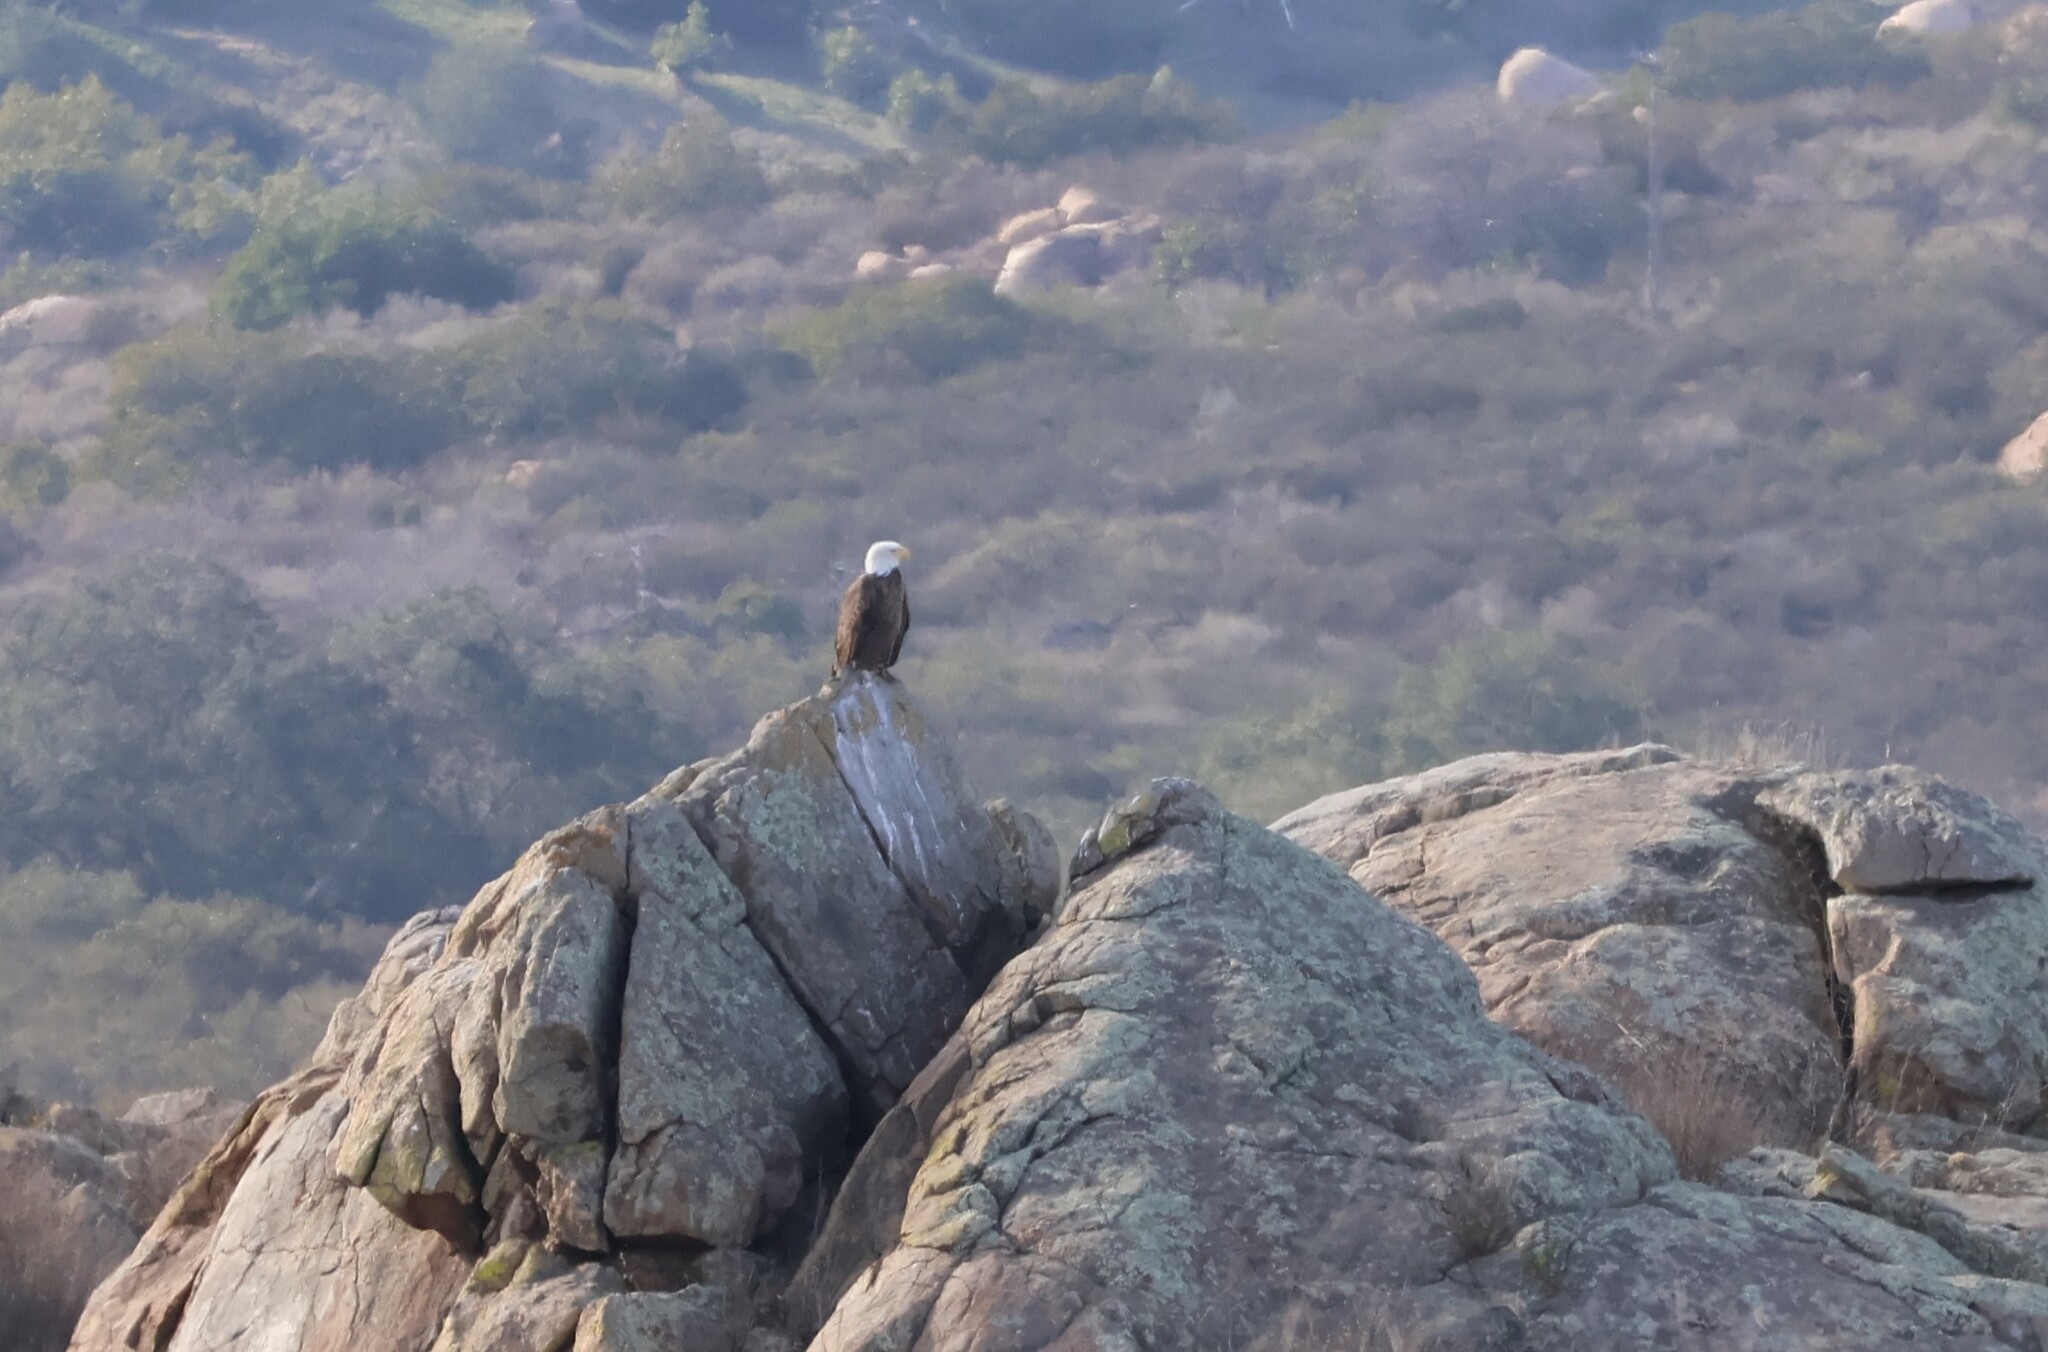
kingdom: Animalia
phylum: Chordata
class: Aves
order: Accipitriformes
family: Accipitridae
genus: Haliaeetus
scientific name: Haliaeetus leucocephalus
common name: Bald eagle
